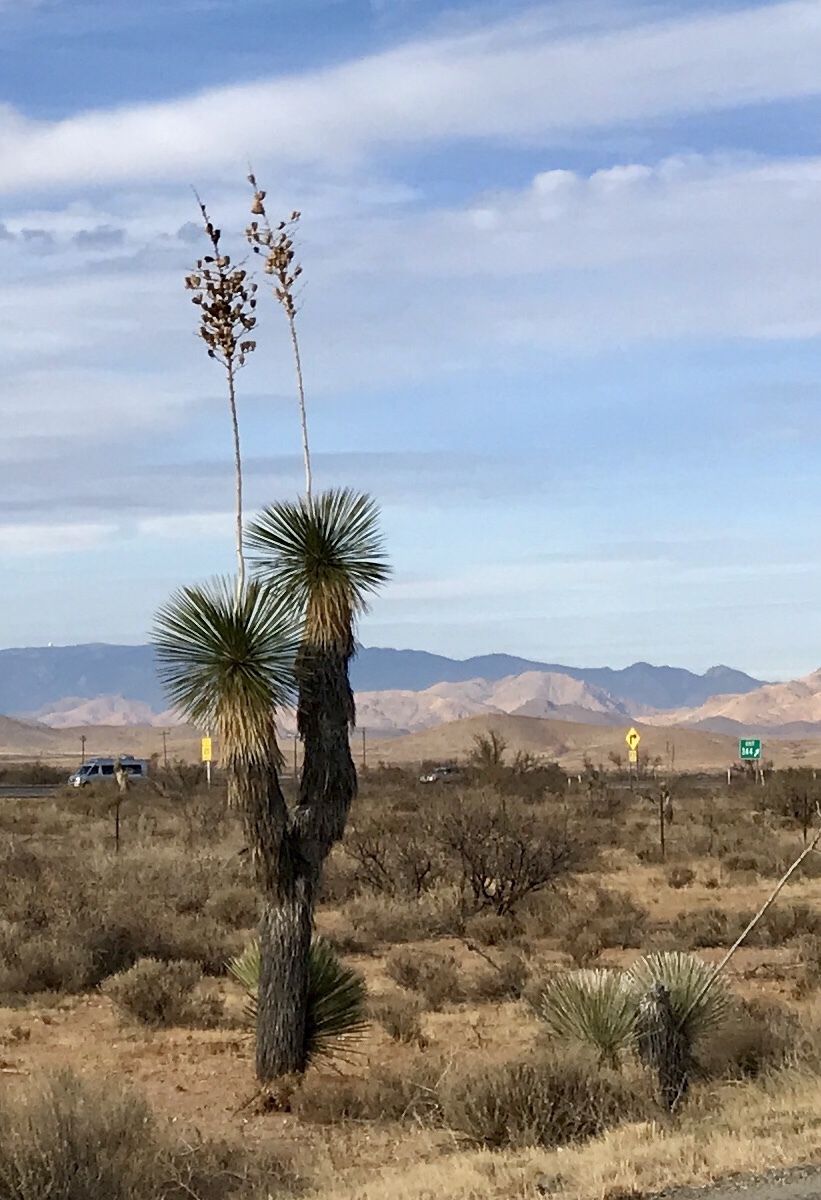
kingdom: Plantae
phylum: Tracheophyta
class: Liliopsida
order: Asparagales
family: Asparagaceae
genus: Yucca
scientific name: Yucca elata
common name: Palmella
